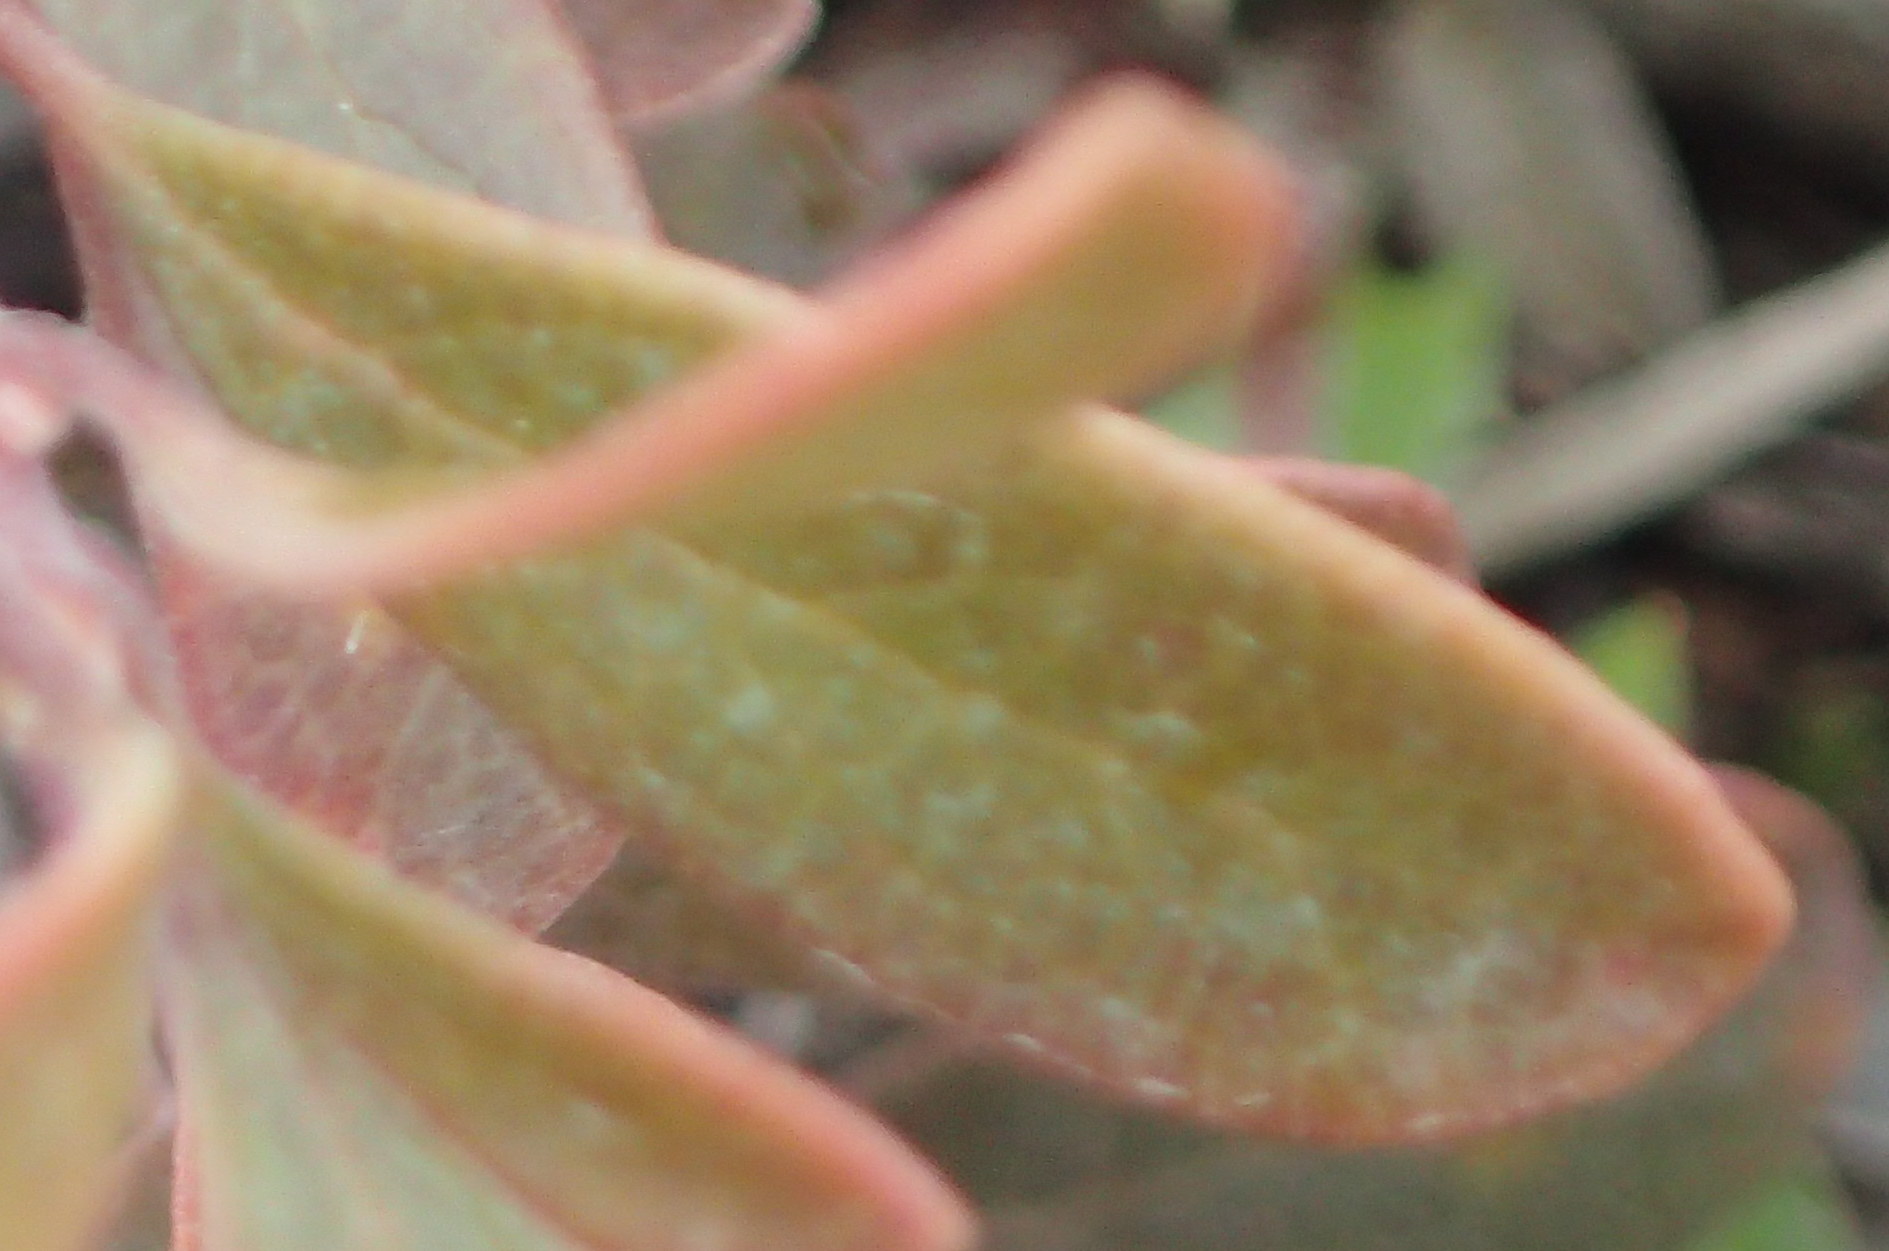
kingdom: Plantae
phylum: Tracheophyta
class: Magnoliopsida
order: Ericales
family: Ericaceae
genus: Arctostaphylos
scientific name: Arctostaphylos uva-ursi
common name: Bearberry
